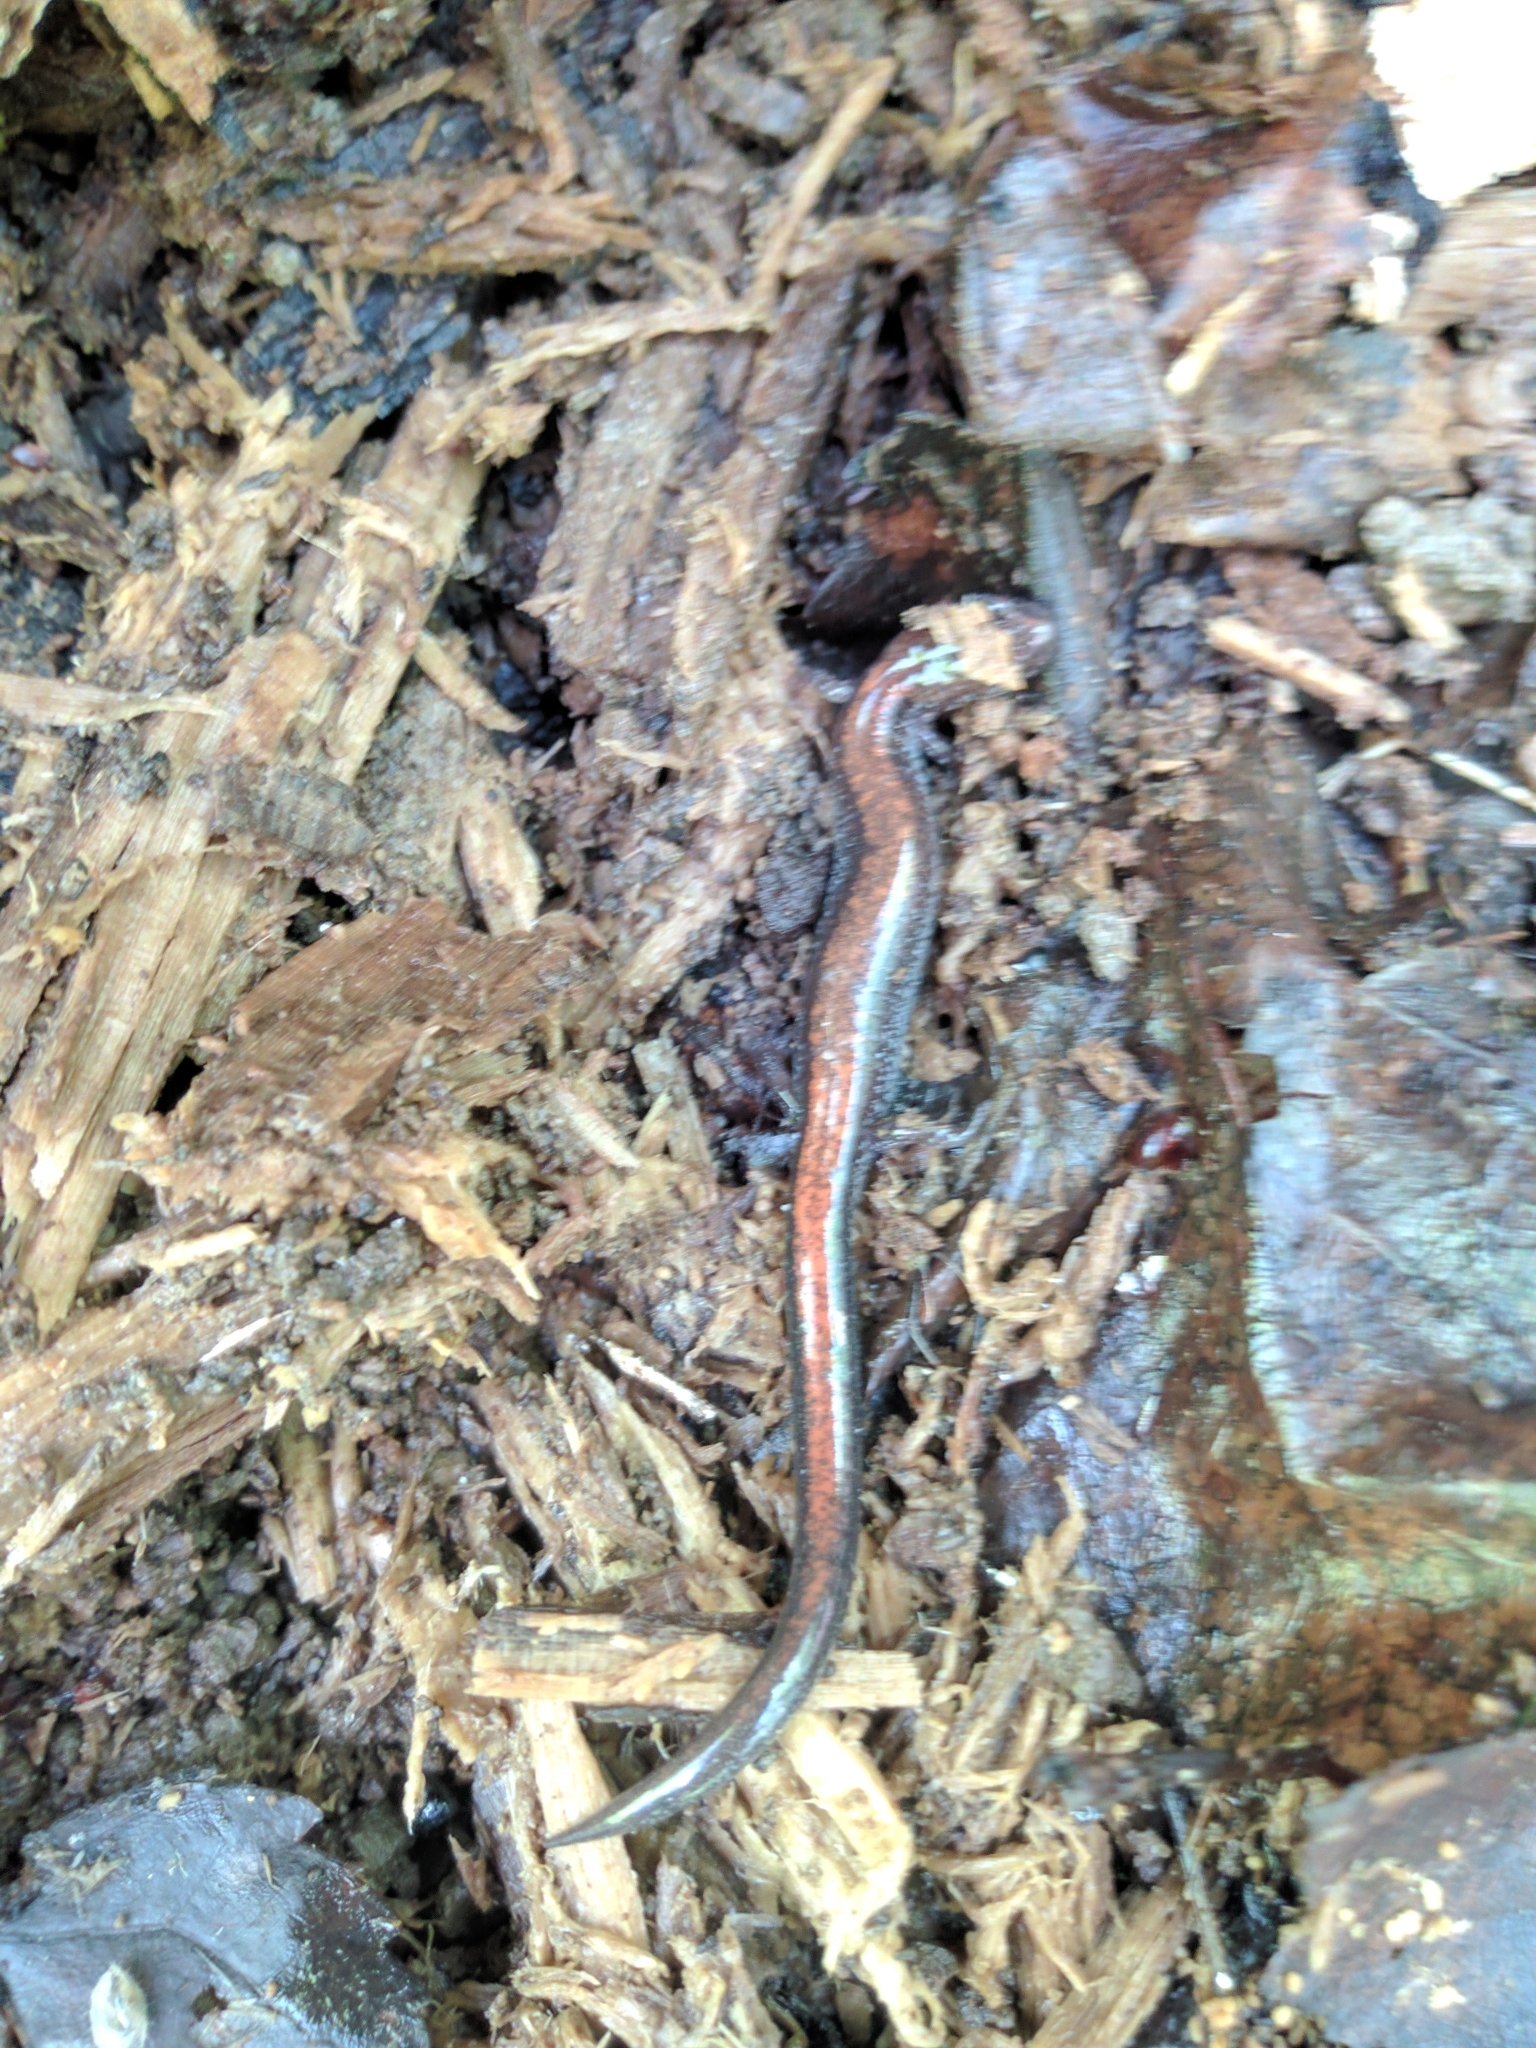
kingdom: Animalia
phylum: Chordata
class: Amphibia
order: Caudata
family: Plethodontidae
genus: Plethodon
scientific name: Plethodon cinereus
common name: Redback salamander
